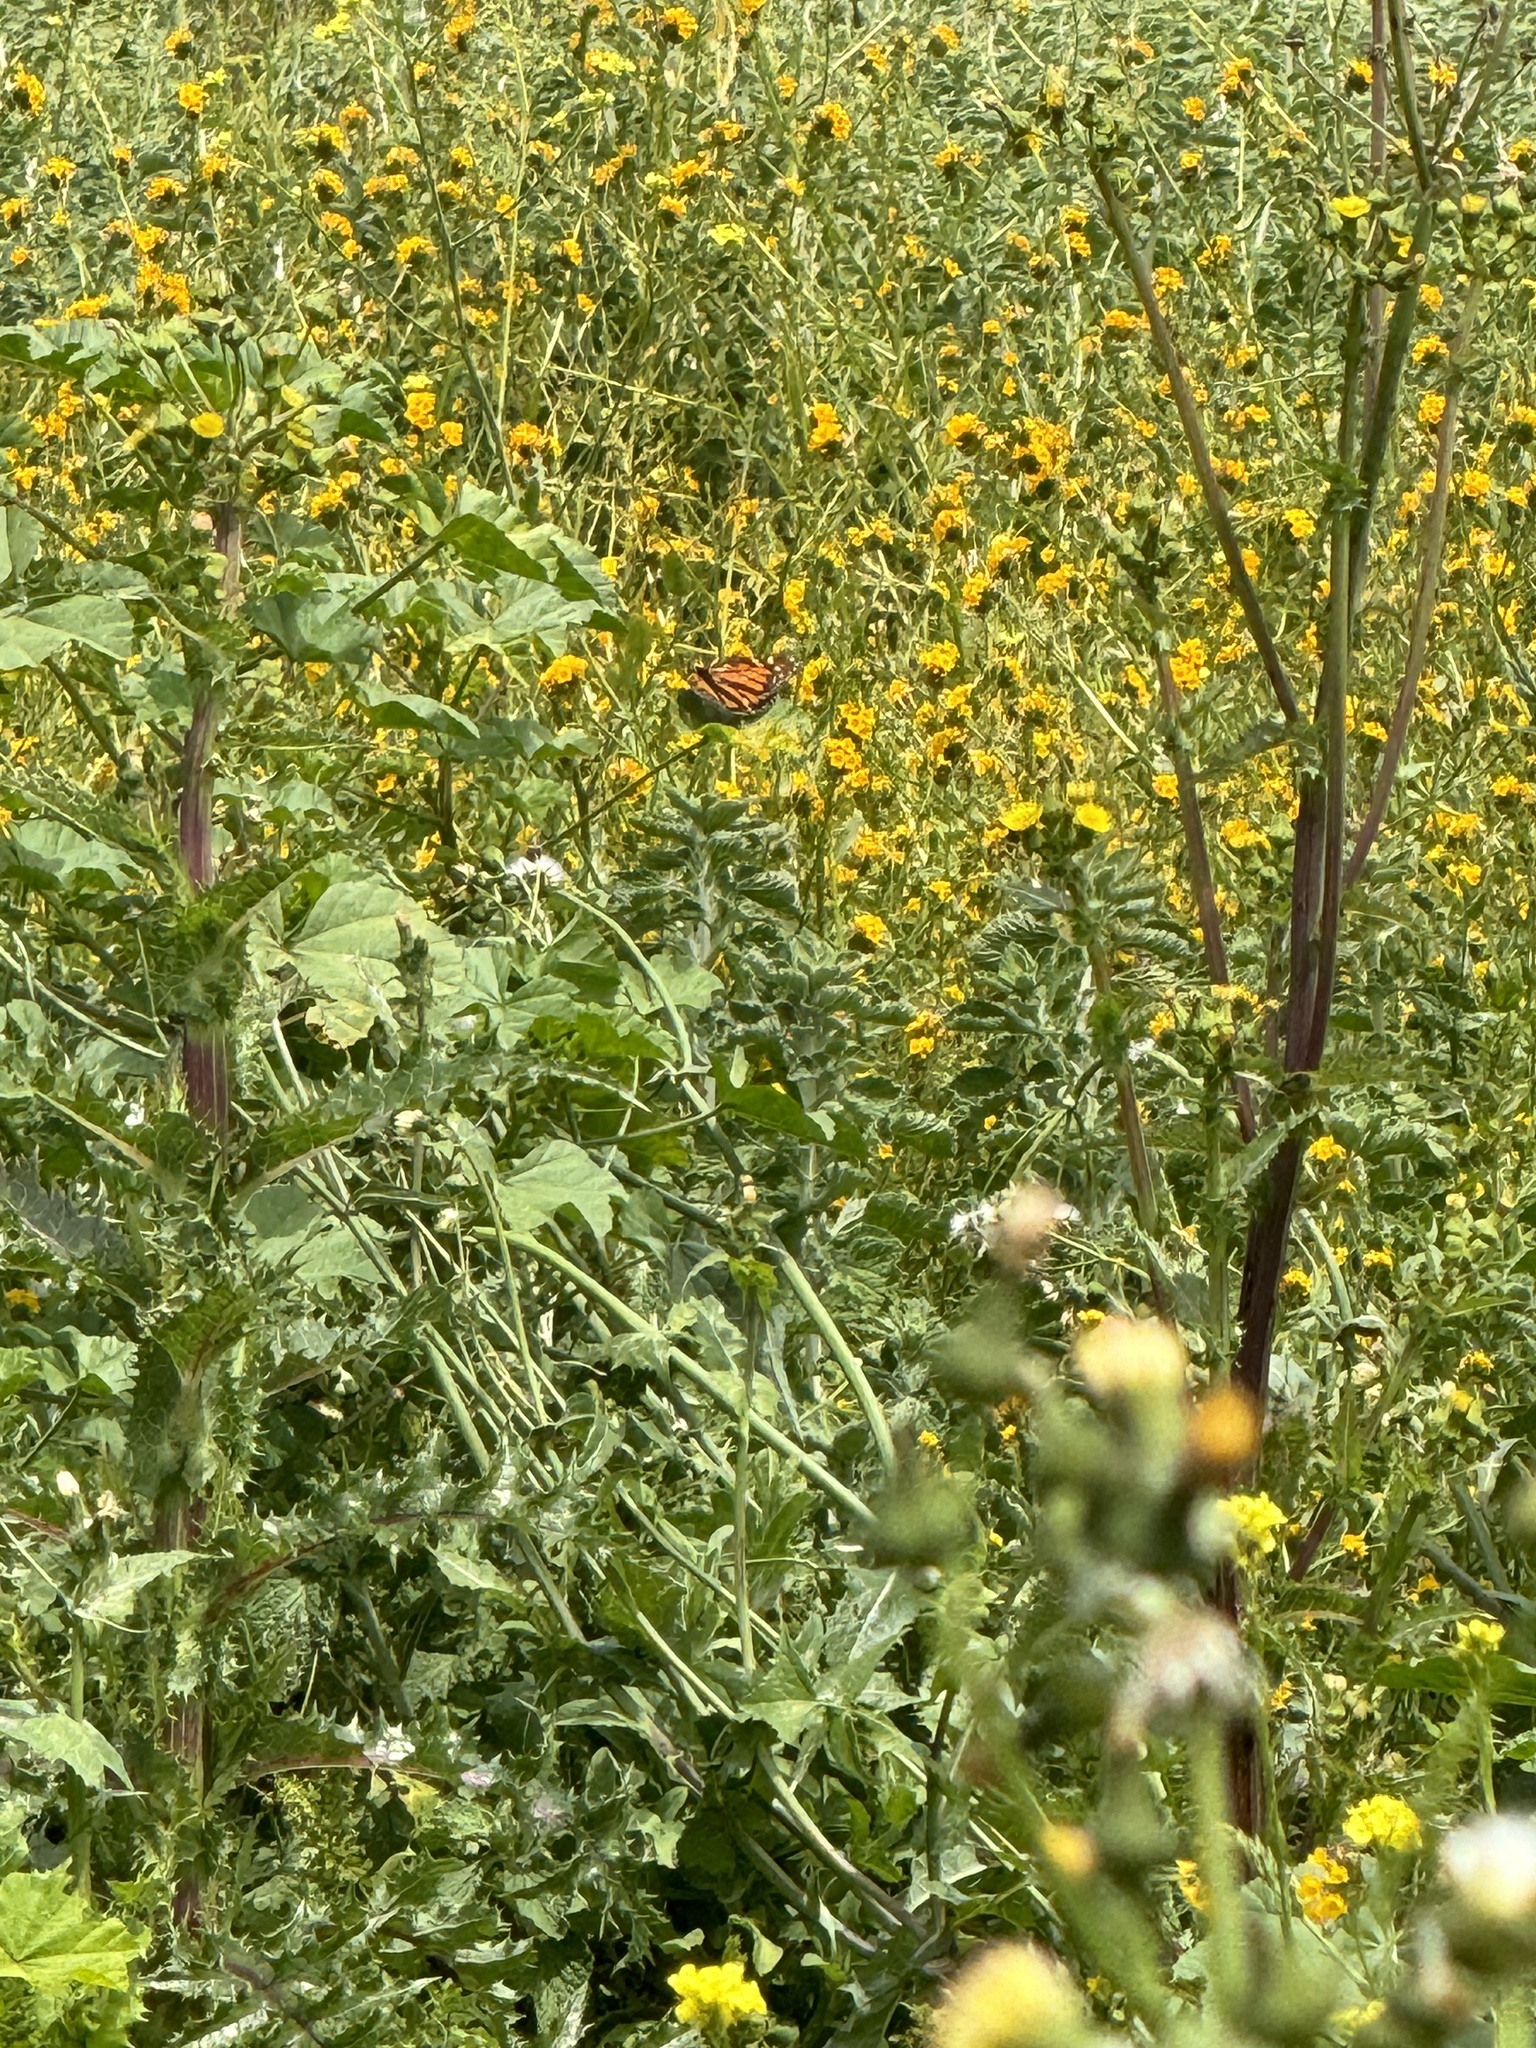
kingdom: Animalia
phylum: Arthropoda
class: Insecta
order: Lepidoptera
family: Nymphalidae
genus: Danaus
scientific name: Danaus plexippus
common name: Monarch
